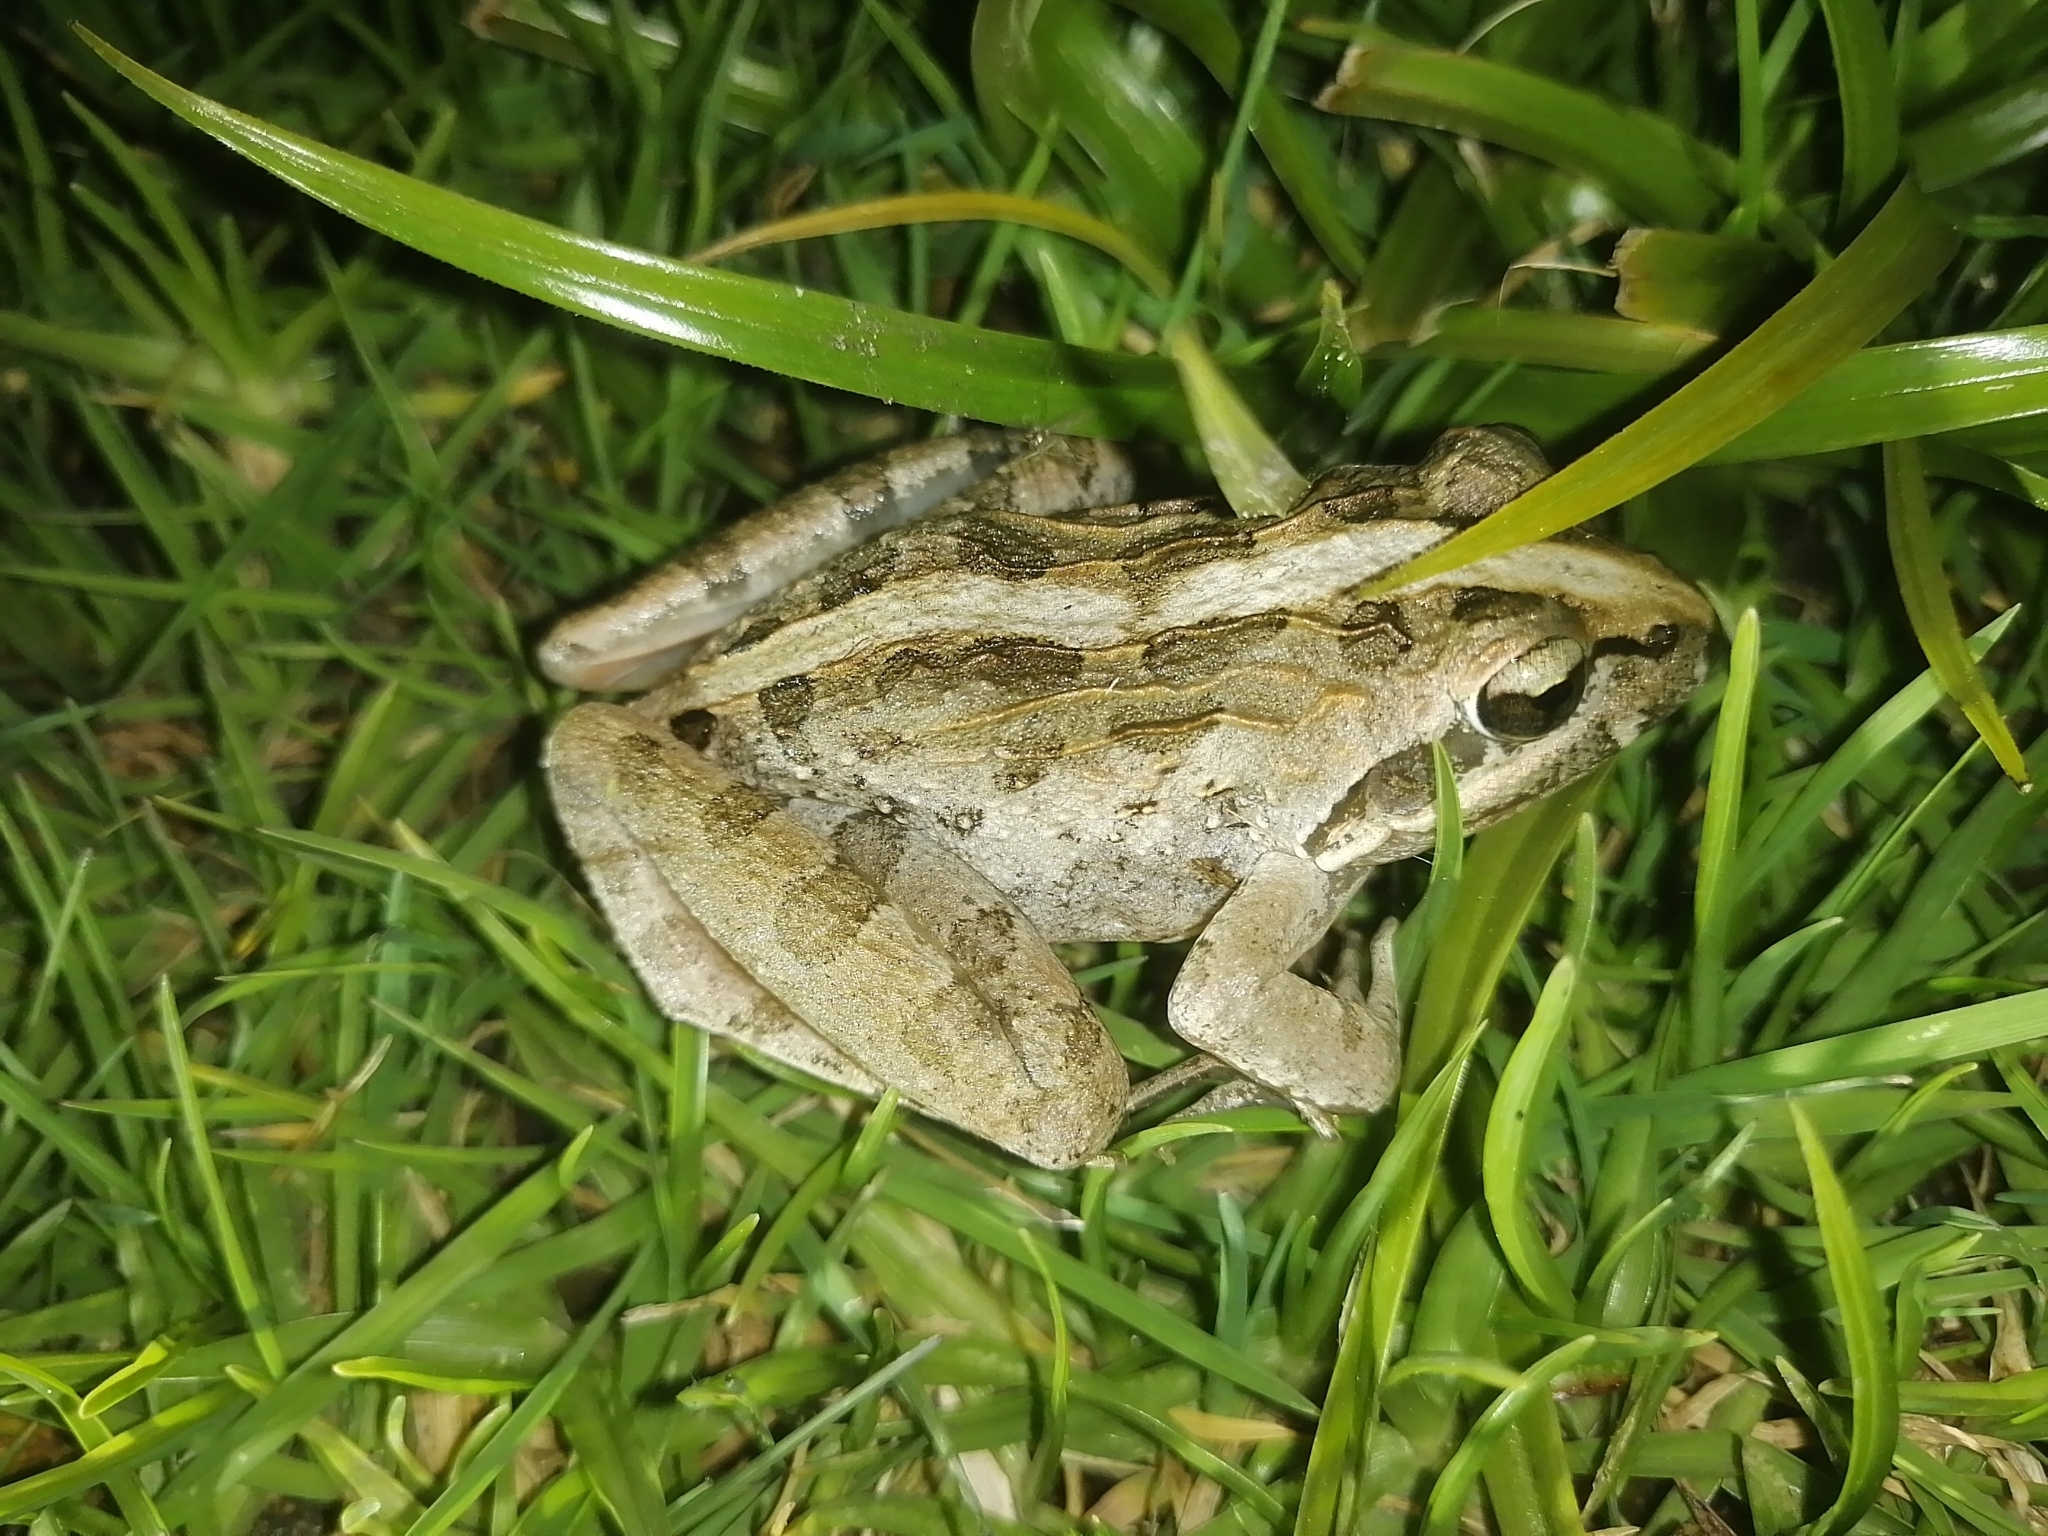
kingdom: Animalia
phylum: Chordata
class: Amphibia
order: Anura
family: Pyxicephalidae
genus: Strongylopus
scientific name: Strongylopus grayii
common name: Gray's stream frog
